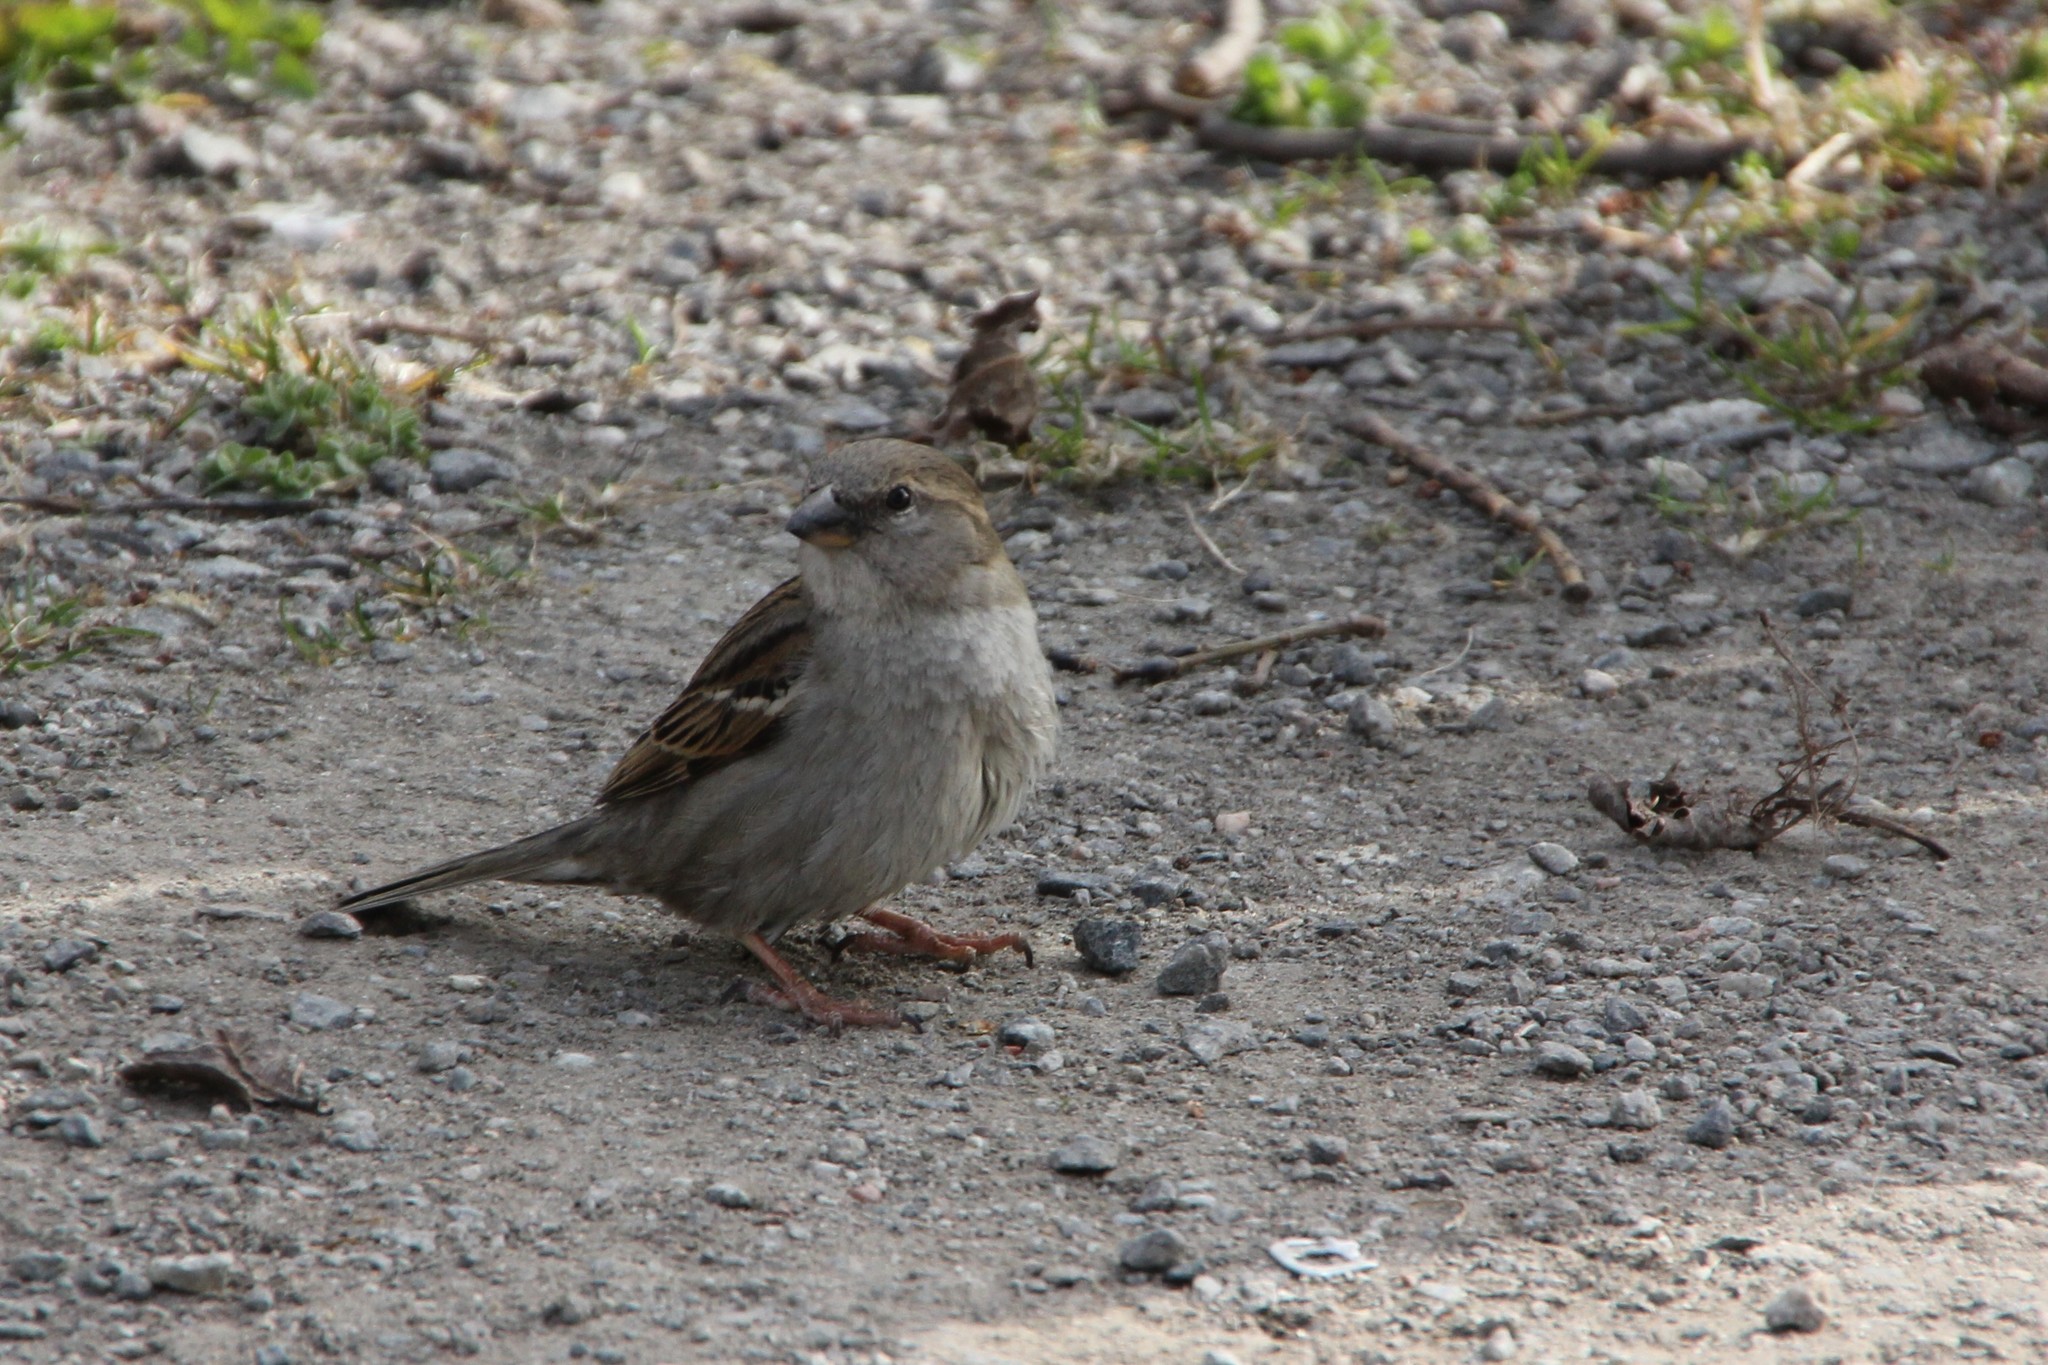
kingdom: Animalia
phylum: Chordata
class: Aves
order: Passeriformes
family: Passeridae
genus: Passer
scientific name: Passer domesticus
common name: House sparrow
